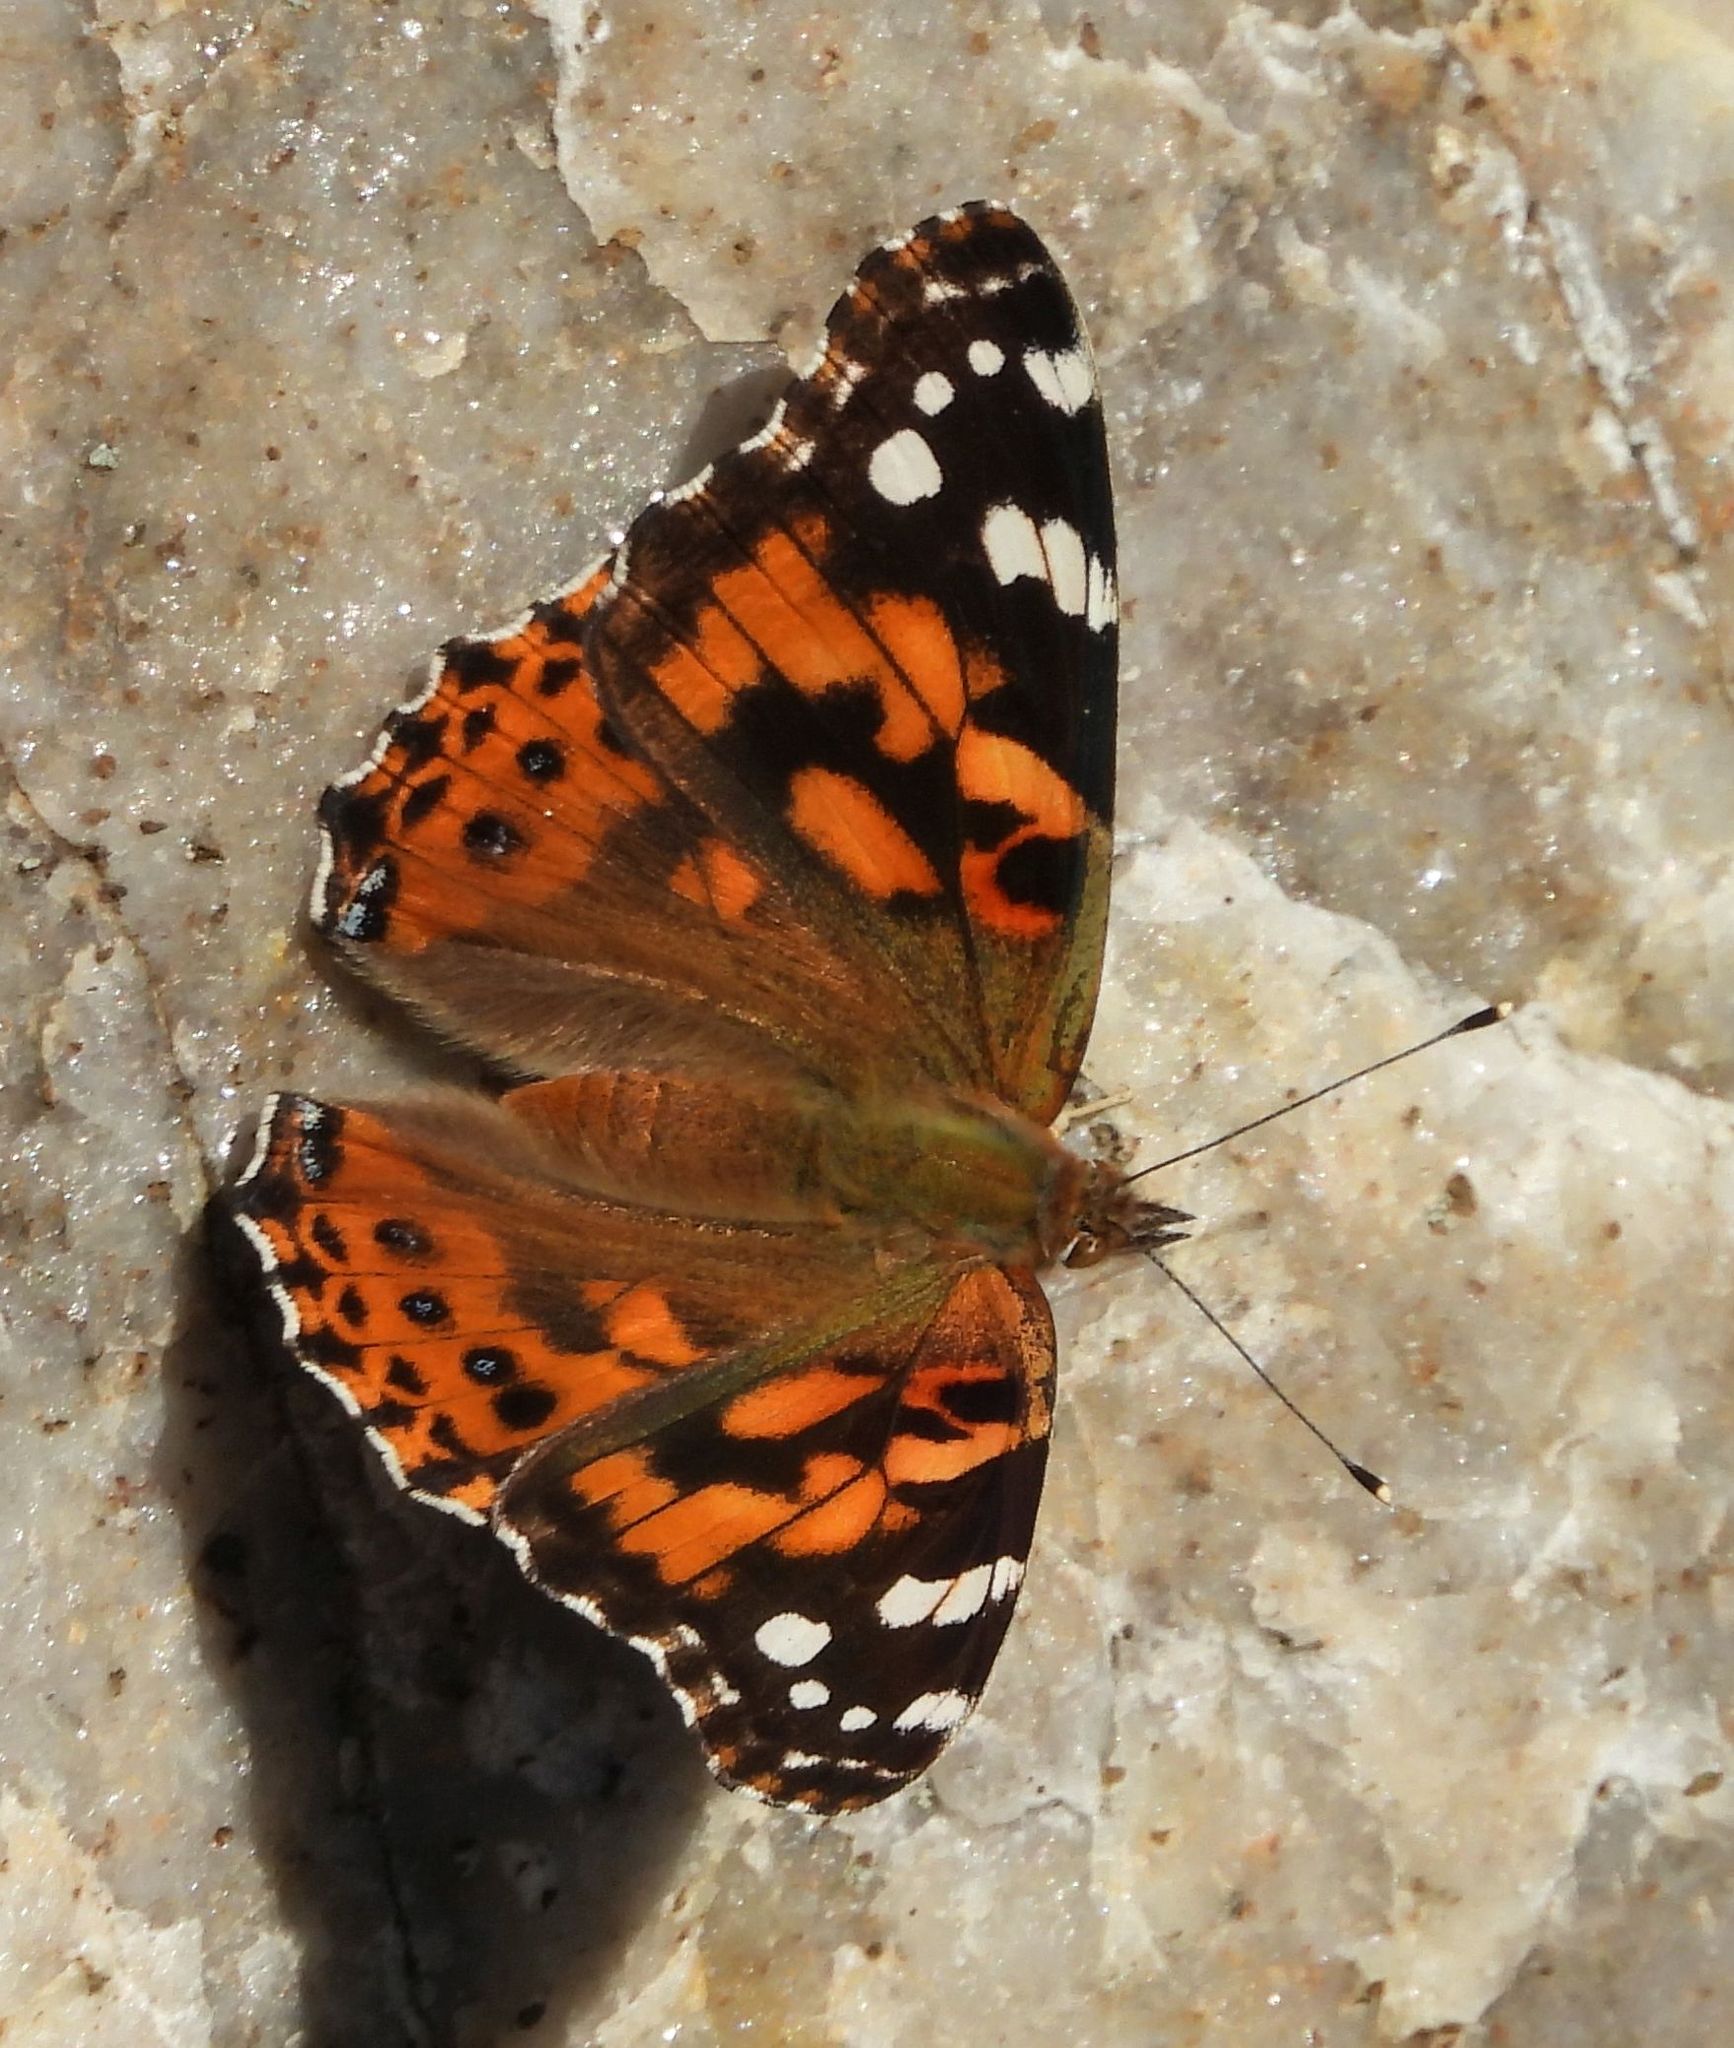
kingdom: Animalia
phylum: Arthropoda
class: Insecta
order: Lepidoptera
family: Nymphalidae
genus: Vanessa
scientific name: Vanessa cardui
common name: Painted lady
